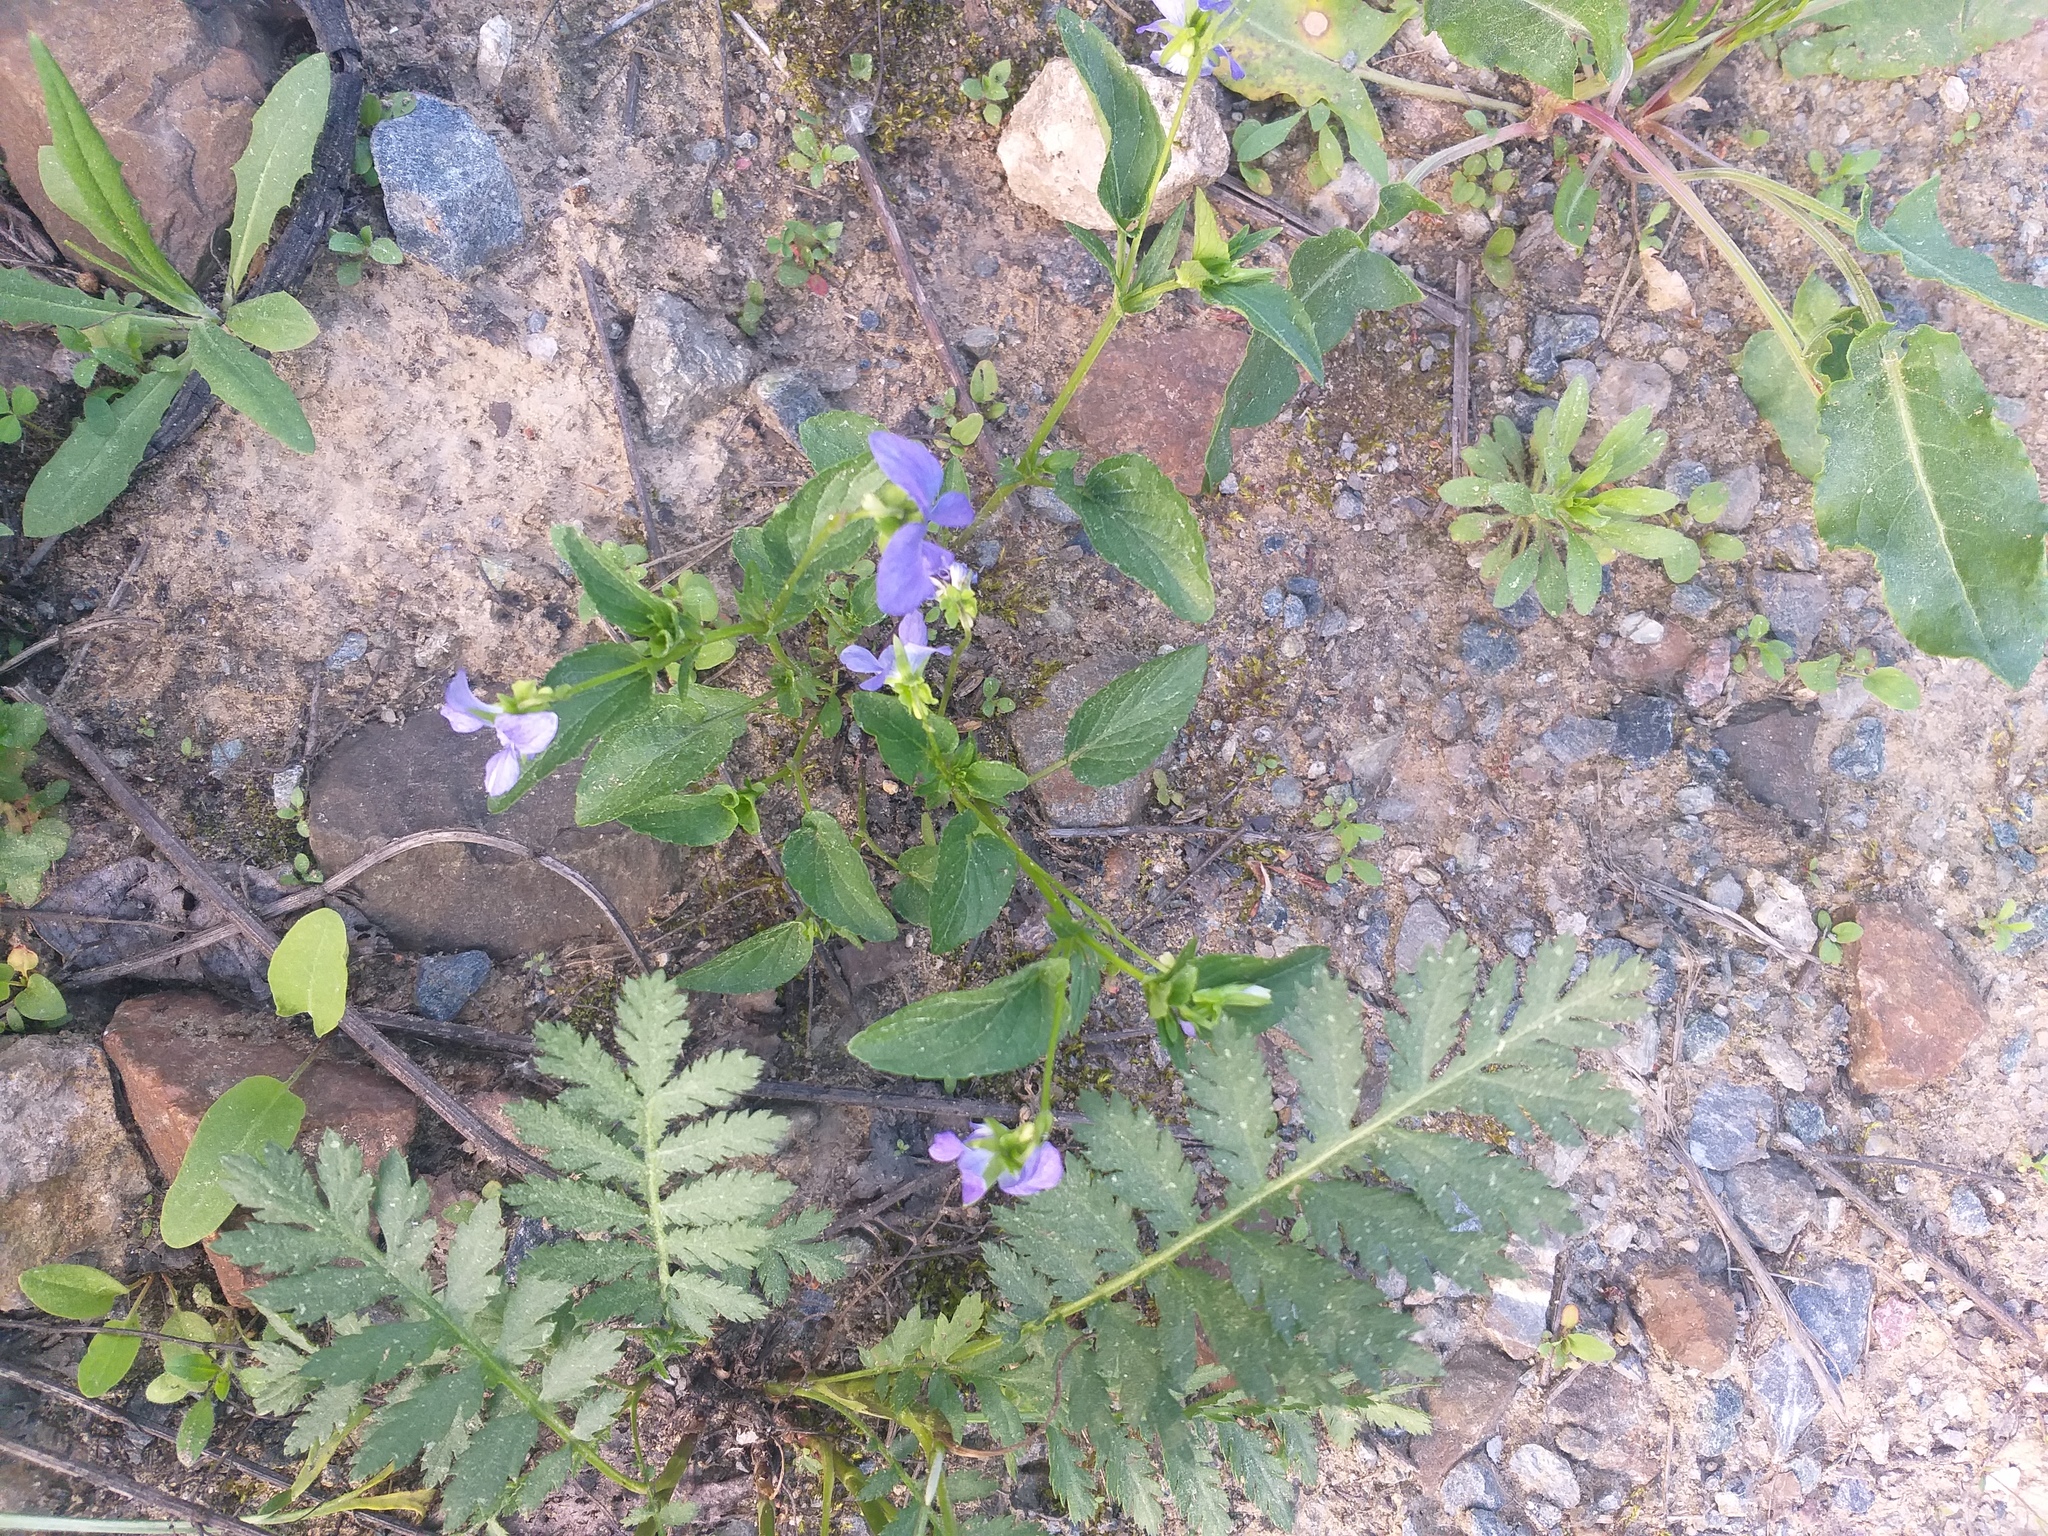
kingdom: Plantae
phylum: Tracheophyta
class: Magnoliopsida
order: Malpighiales
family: Violaceae
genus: Viola
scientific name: Viola canina
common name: Heath dog-violet
